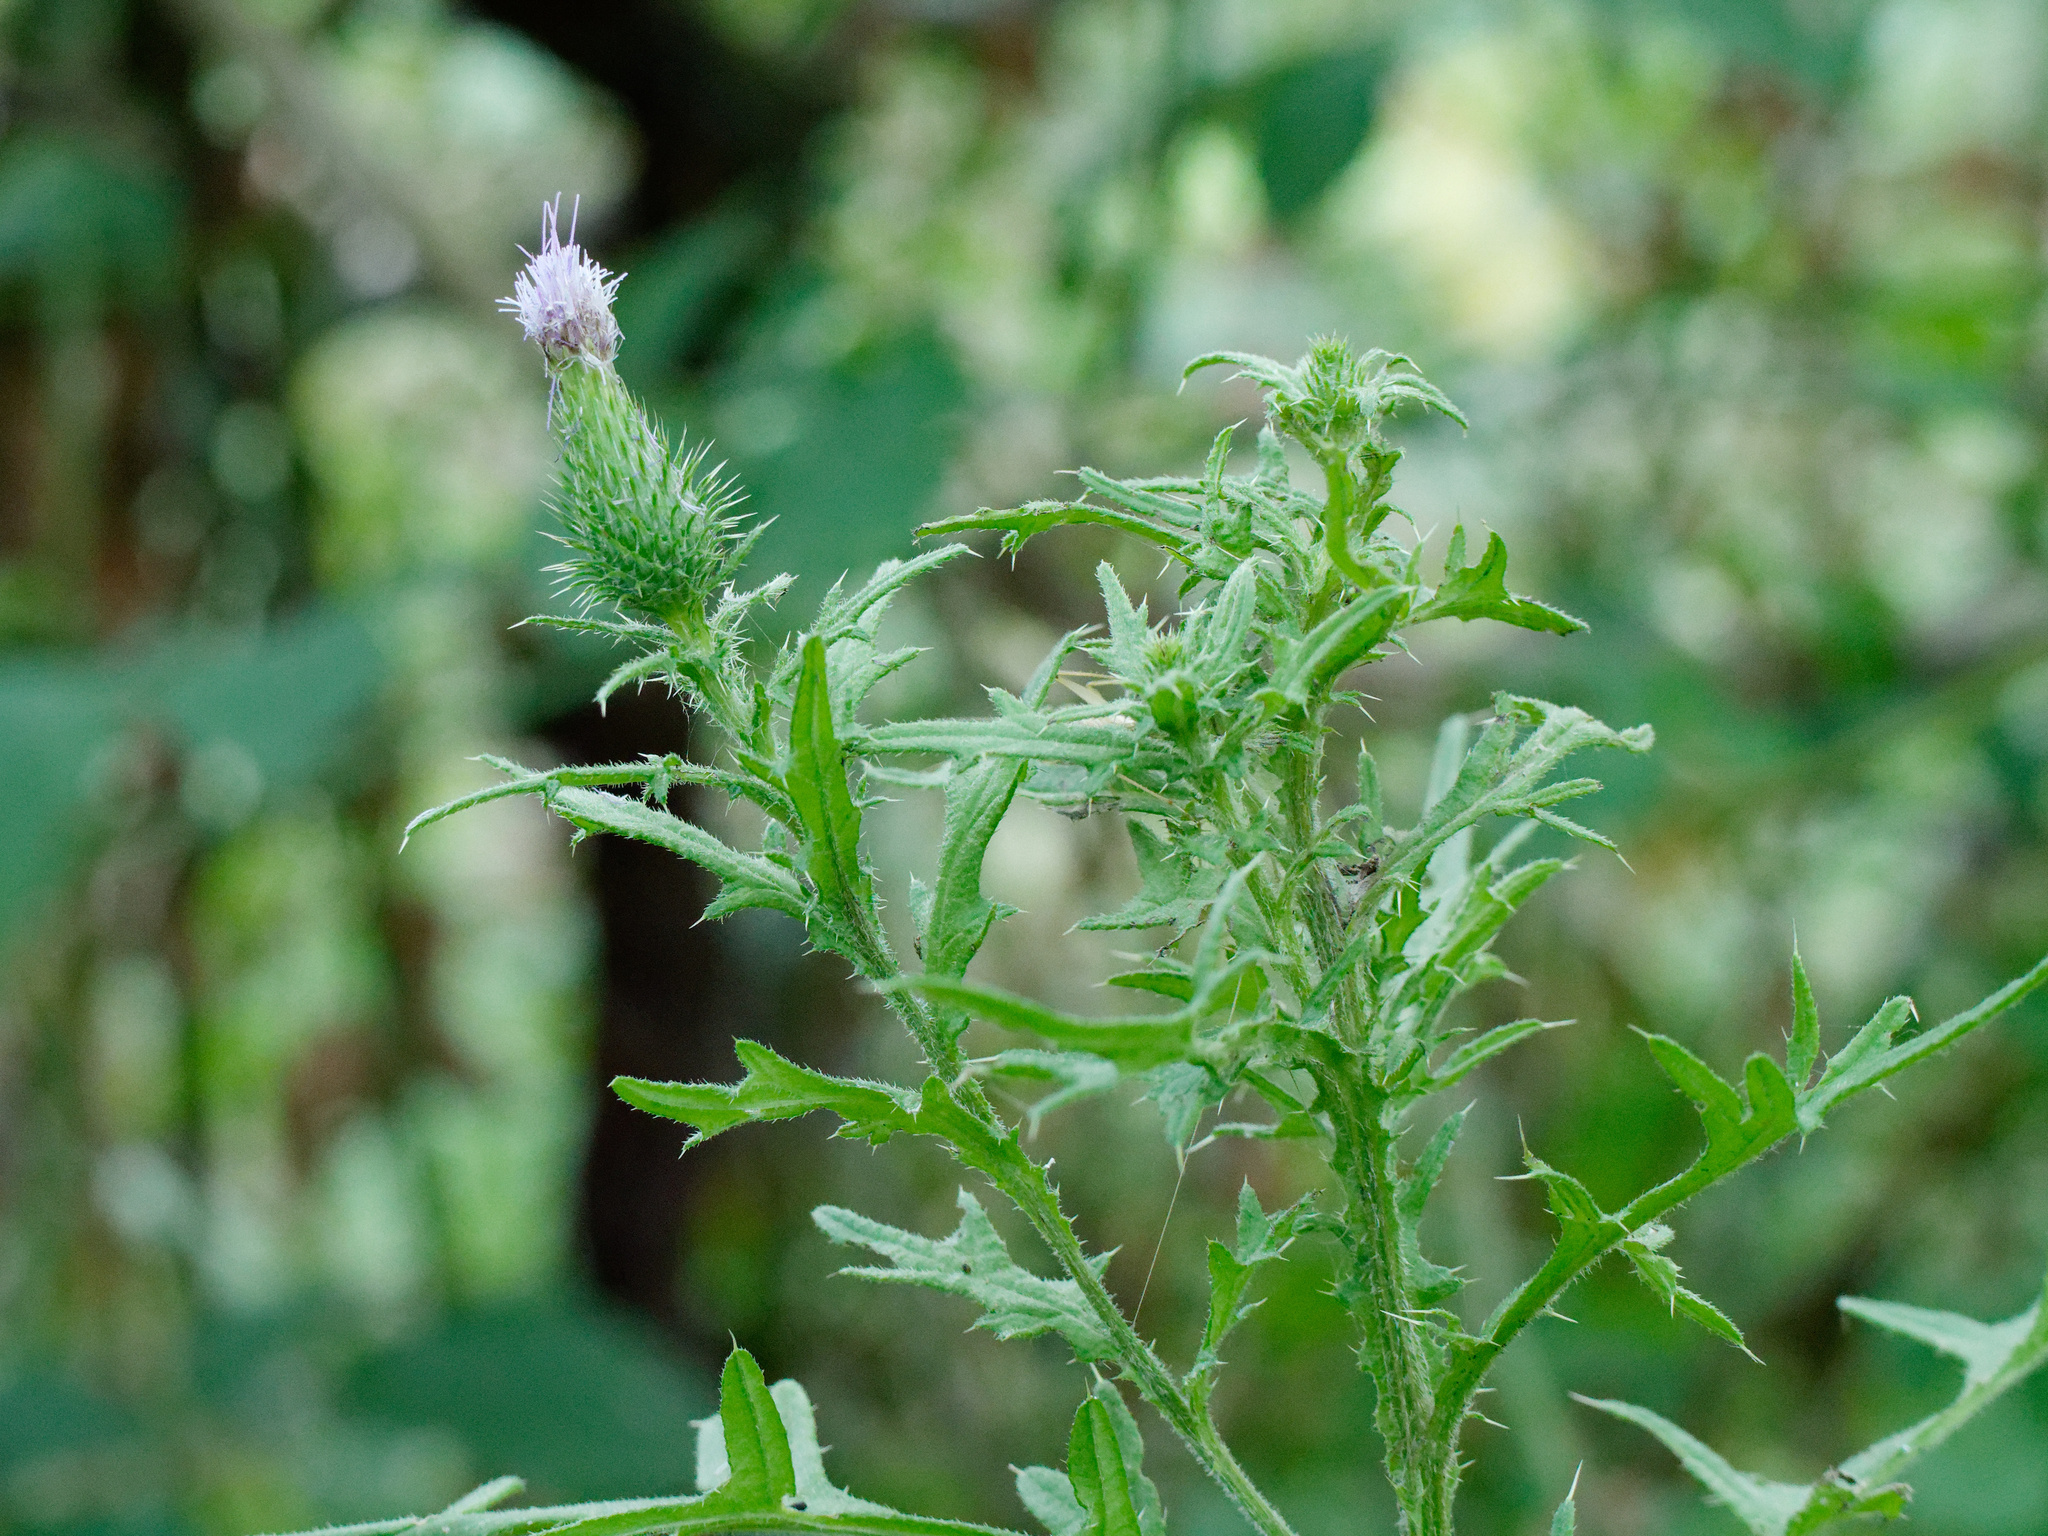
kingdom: Plantae
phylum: Tracheophyta
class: Magnoliopsida
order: Asterales
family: Asteraceae
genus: Cirsium
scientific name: Cirsium vulgare
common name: Bull thistle
